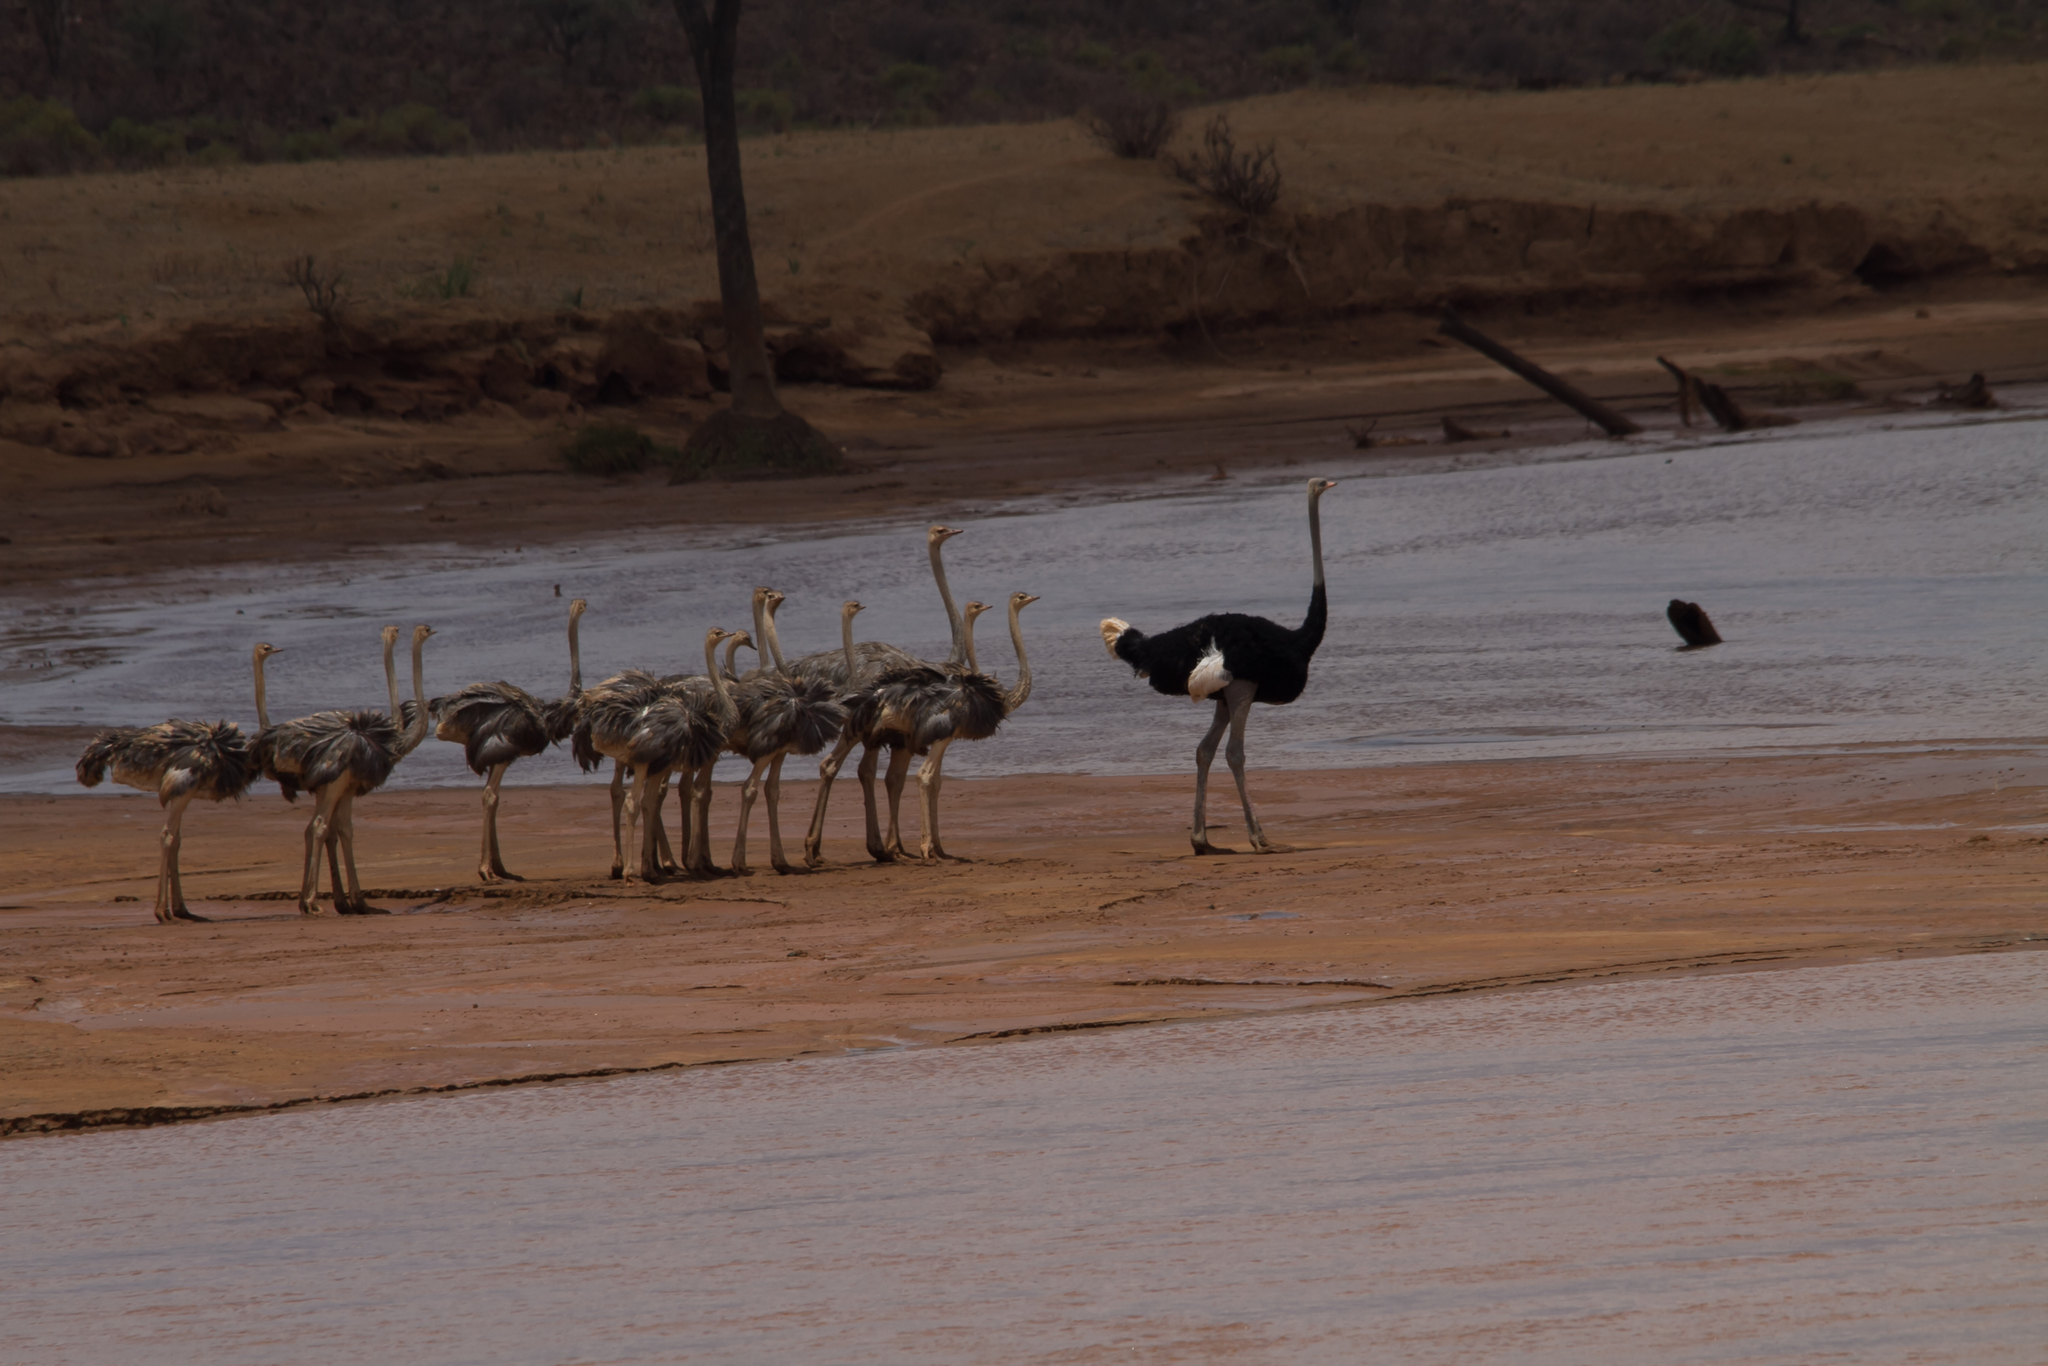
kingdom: Animalia
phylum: Chordata
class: Aves
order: Struthioniformes
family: Struthionidae
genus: Struthio
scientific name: Struthio molybdophanes
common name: Somali ostrich
